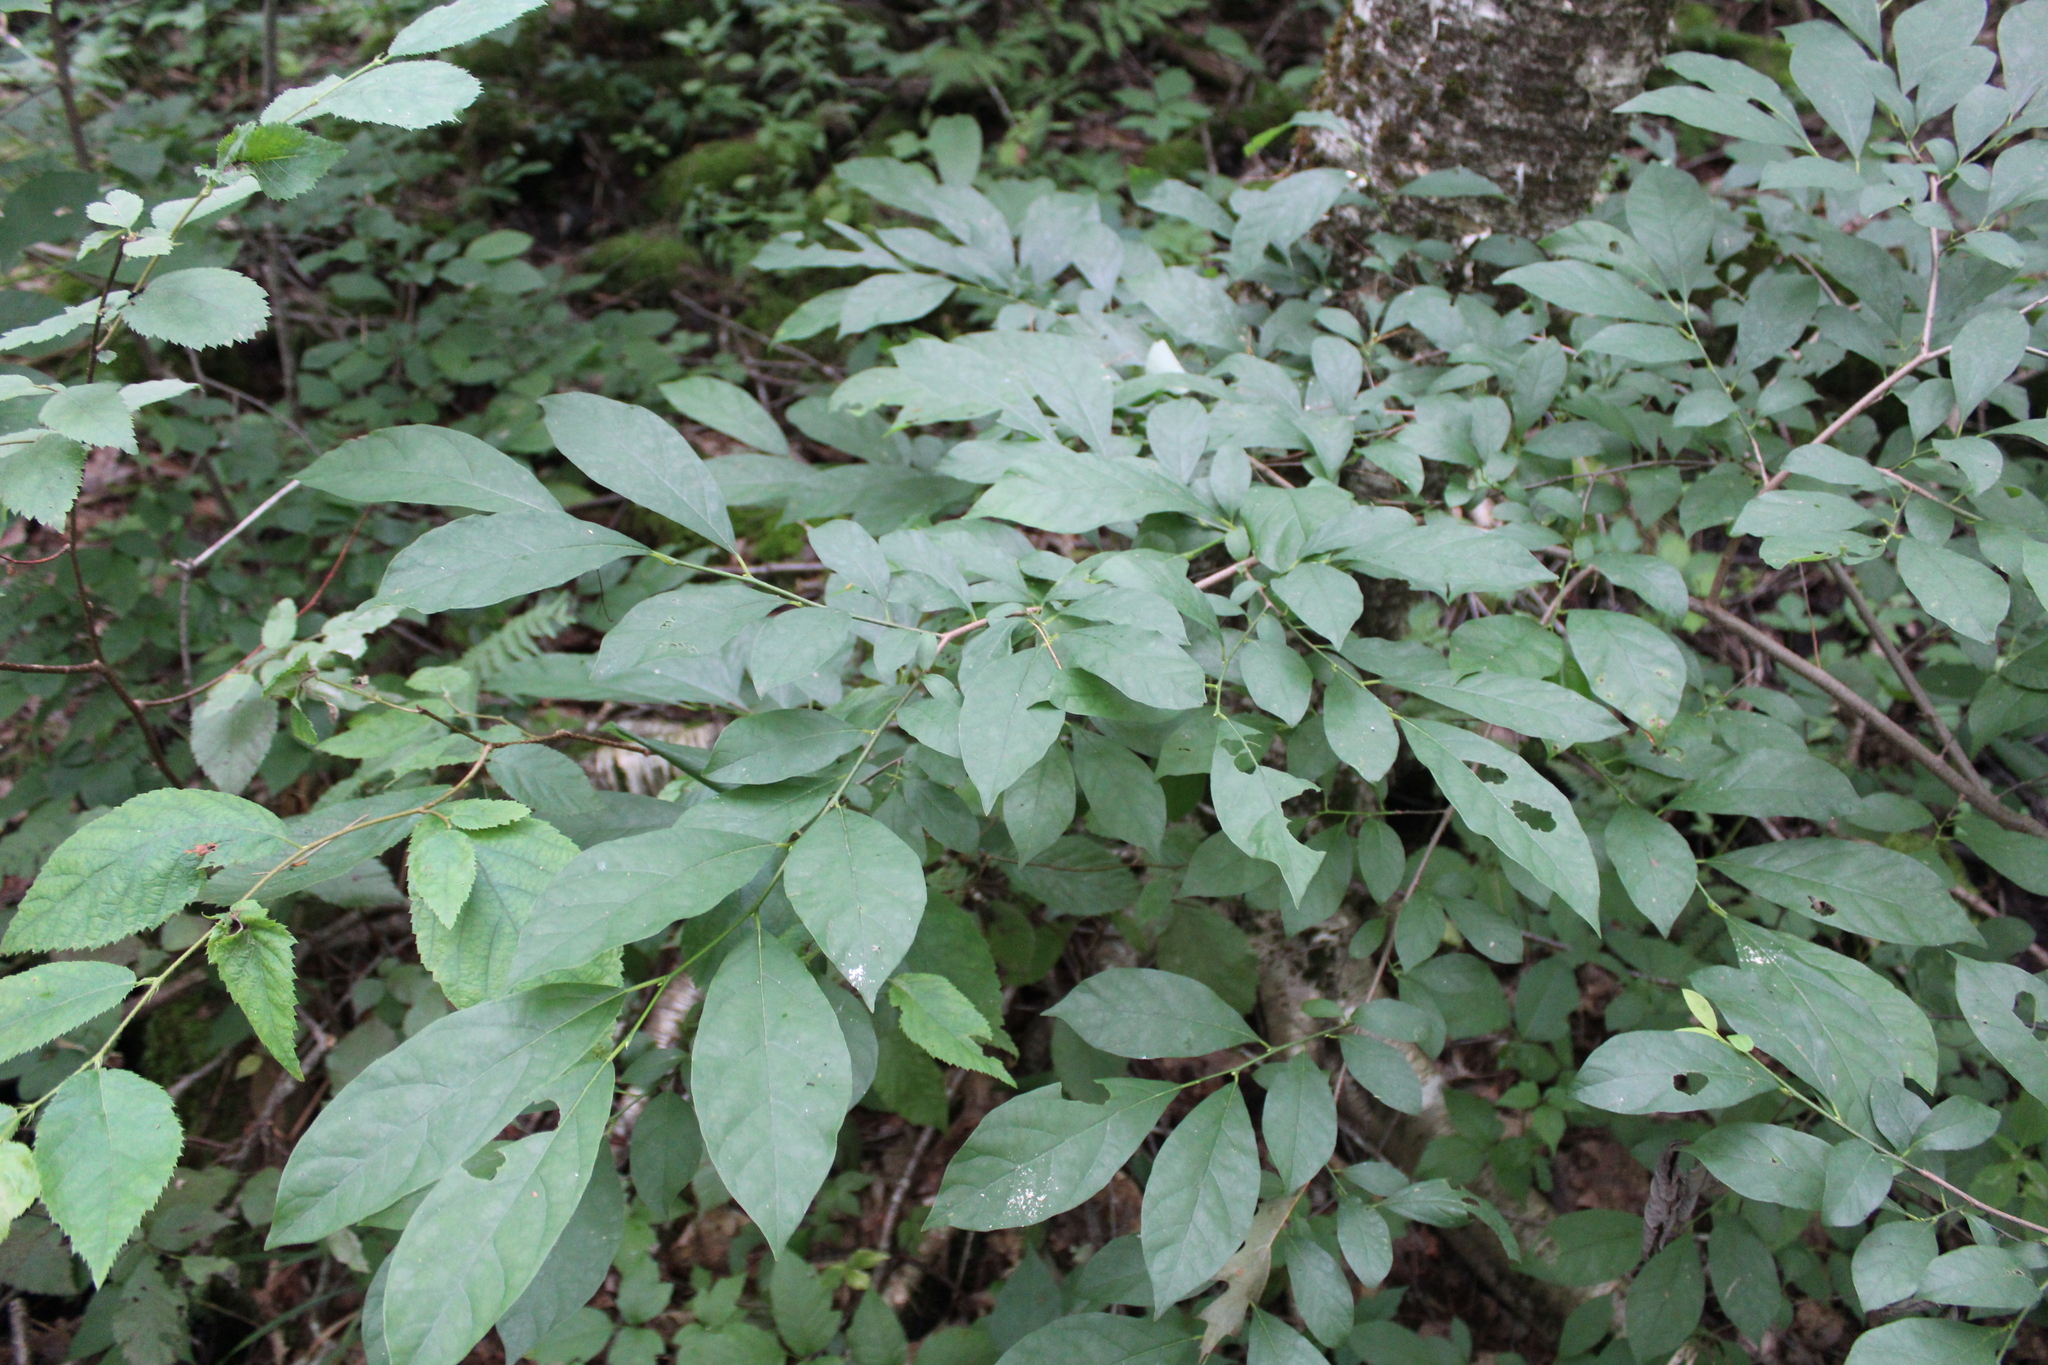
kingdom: Plantae
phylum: Tracheophyta
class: Magnoliopsida
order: Laurales
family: Lauraceae
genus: Lindera
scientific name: Lindera benzoin
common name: Spicebush
